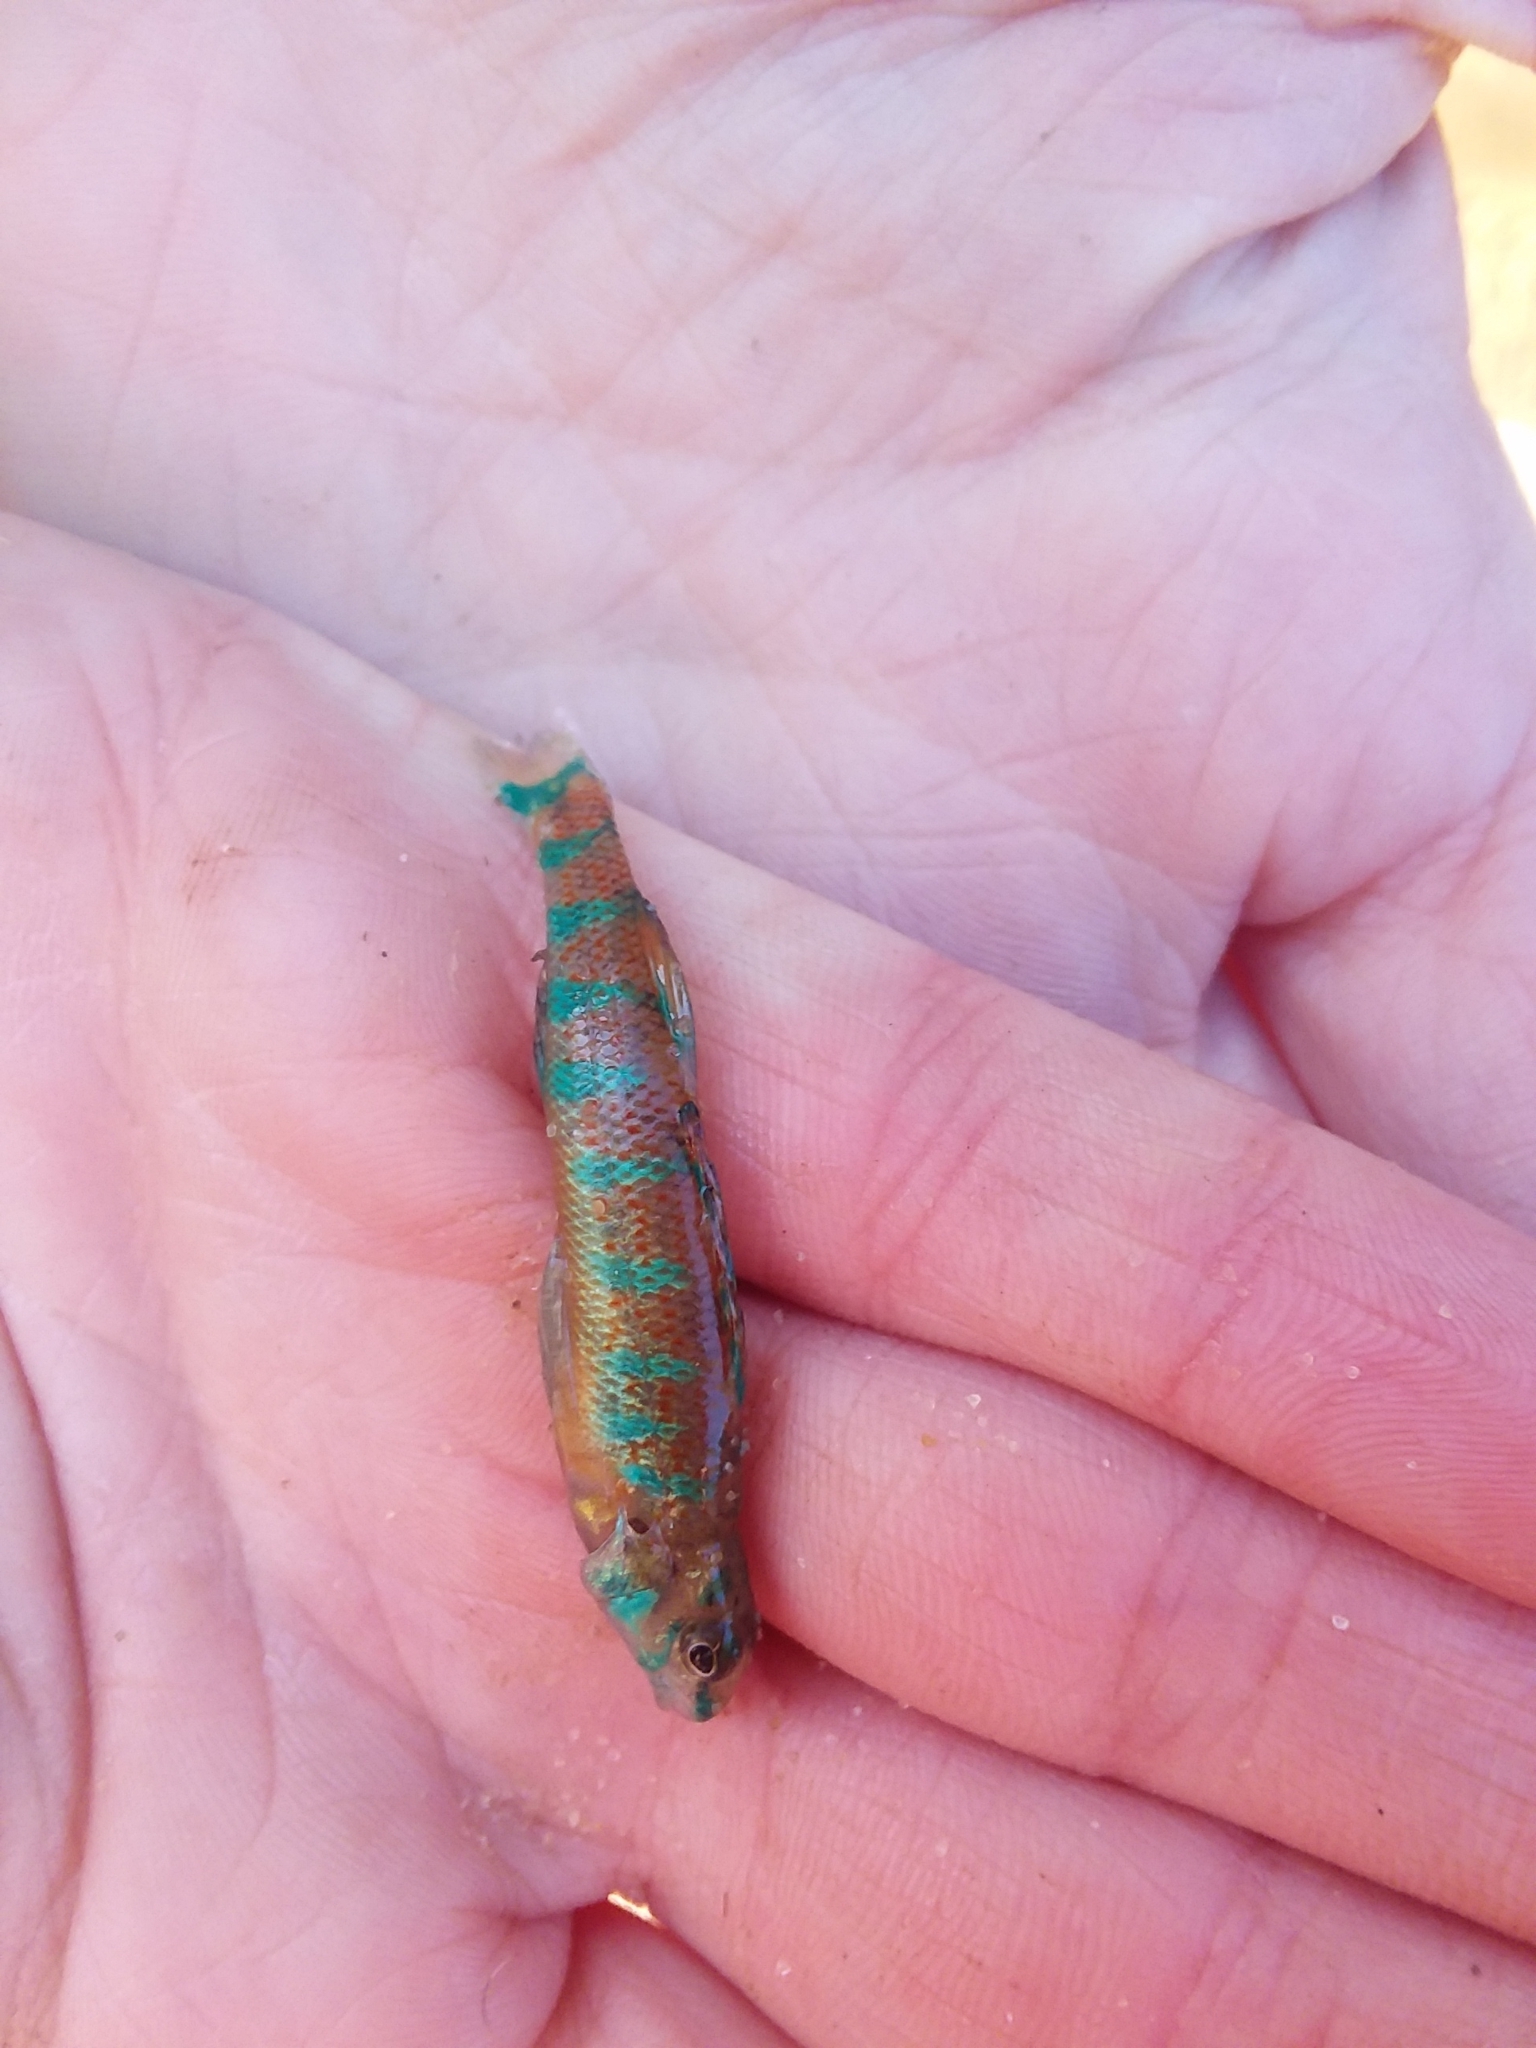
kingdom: Animalia
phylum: Chordata
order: Perciformes
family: Percidae
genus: Etheostoma
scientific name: Etheostoma stigmaeum
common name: Speckled darter
